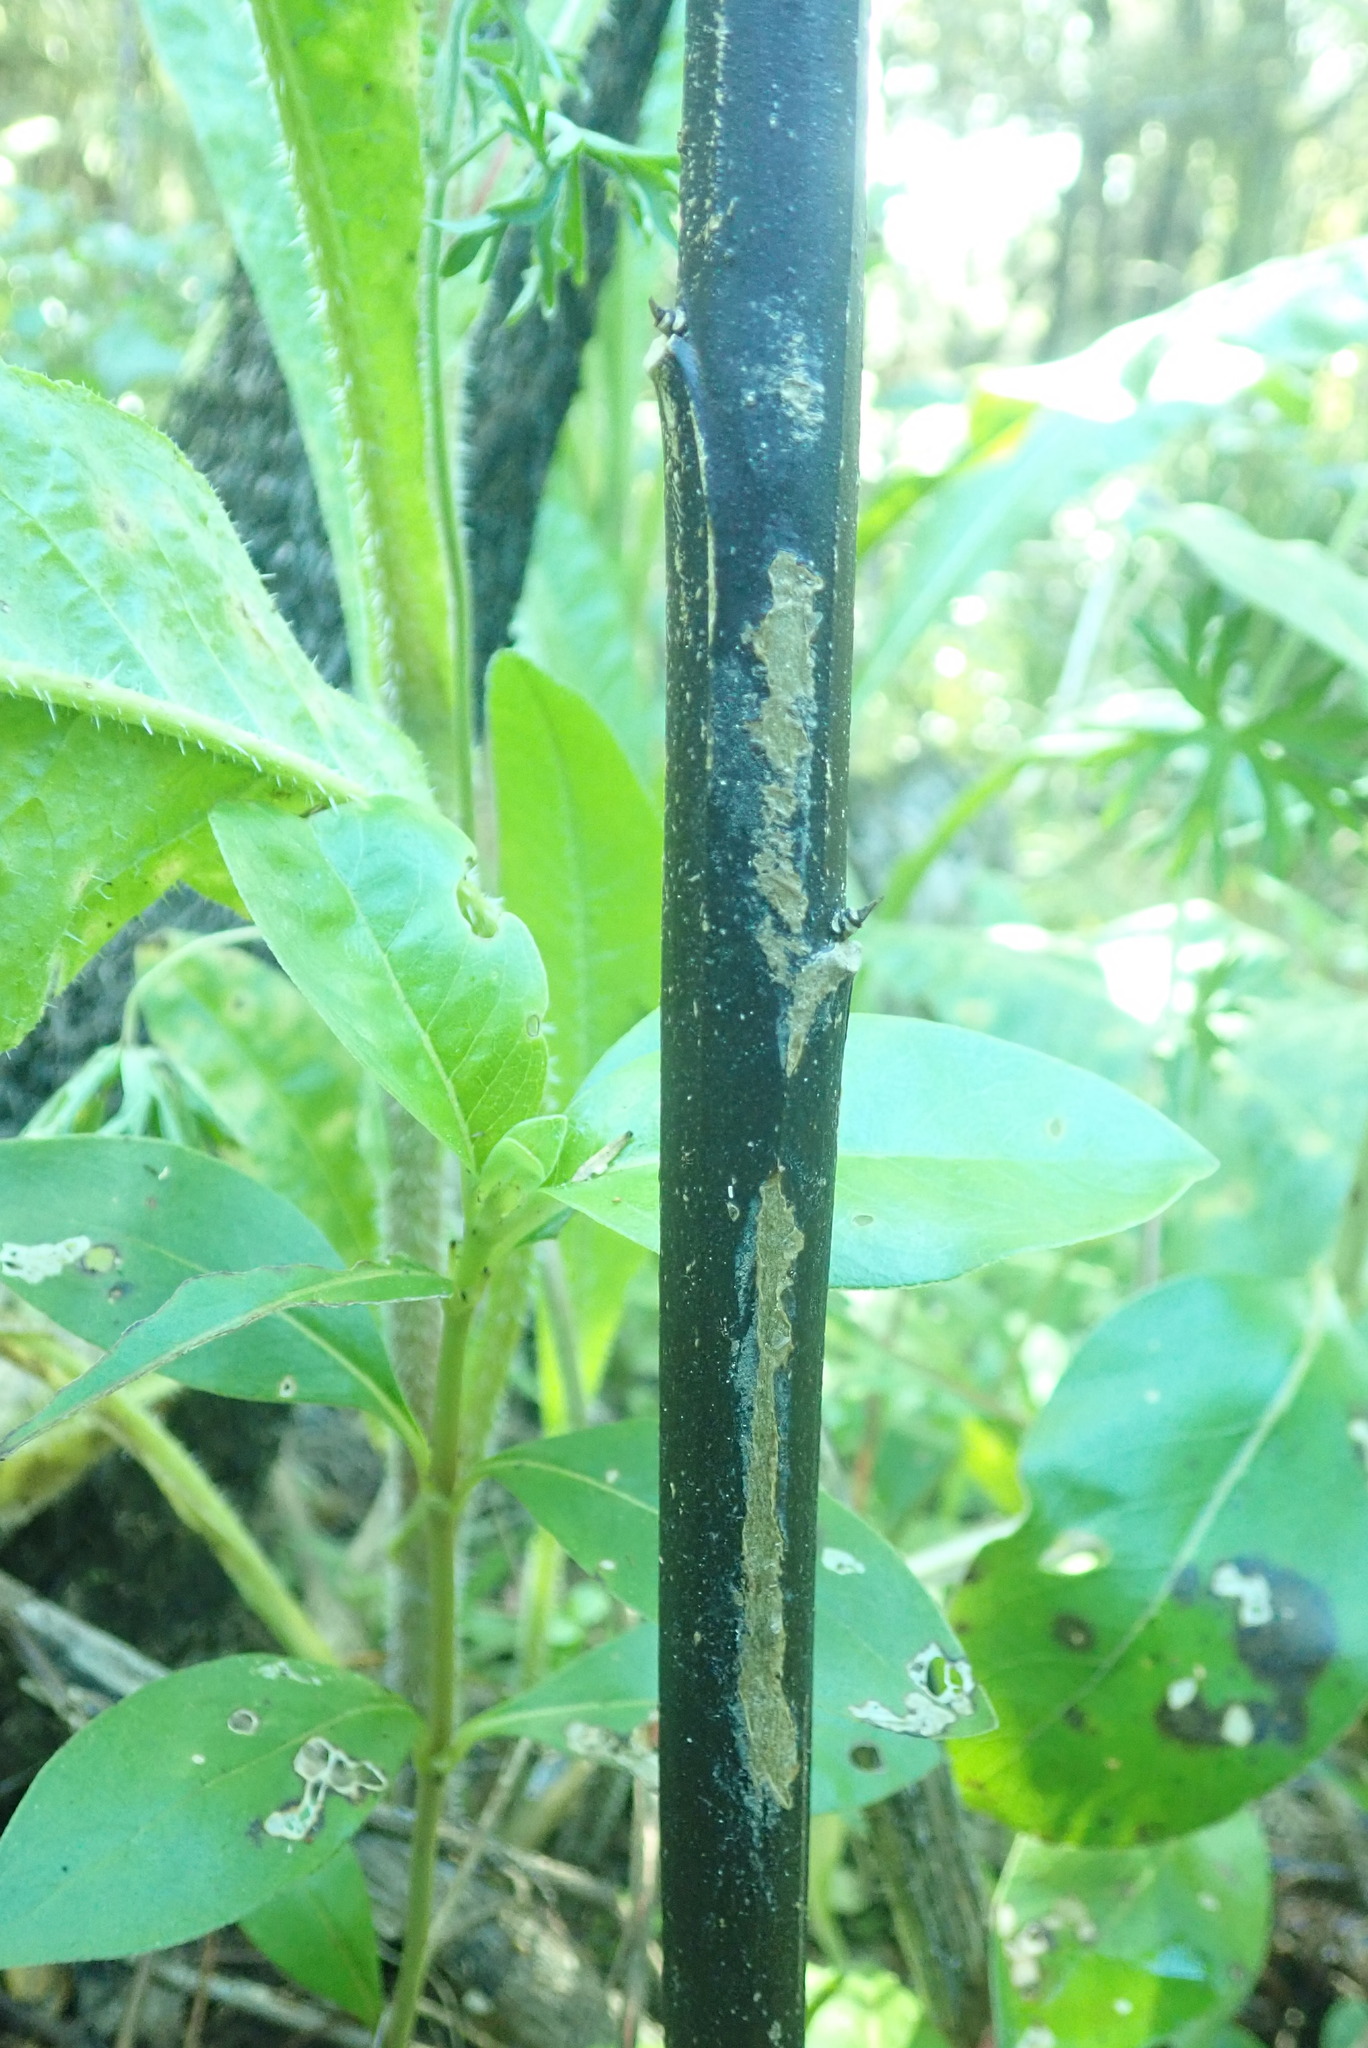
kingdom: Plantae
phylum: Tracheophyta
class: Magnoliopsida
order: Solanales
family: Solanaceae
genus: Solanum
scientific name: Solanum laciniatum
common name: Kangaroo-apple
